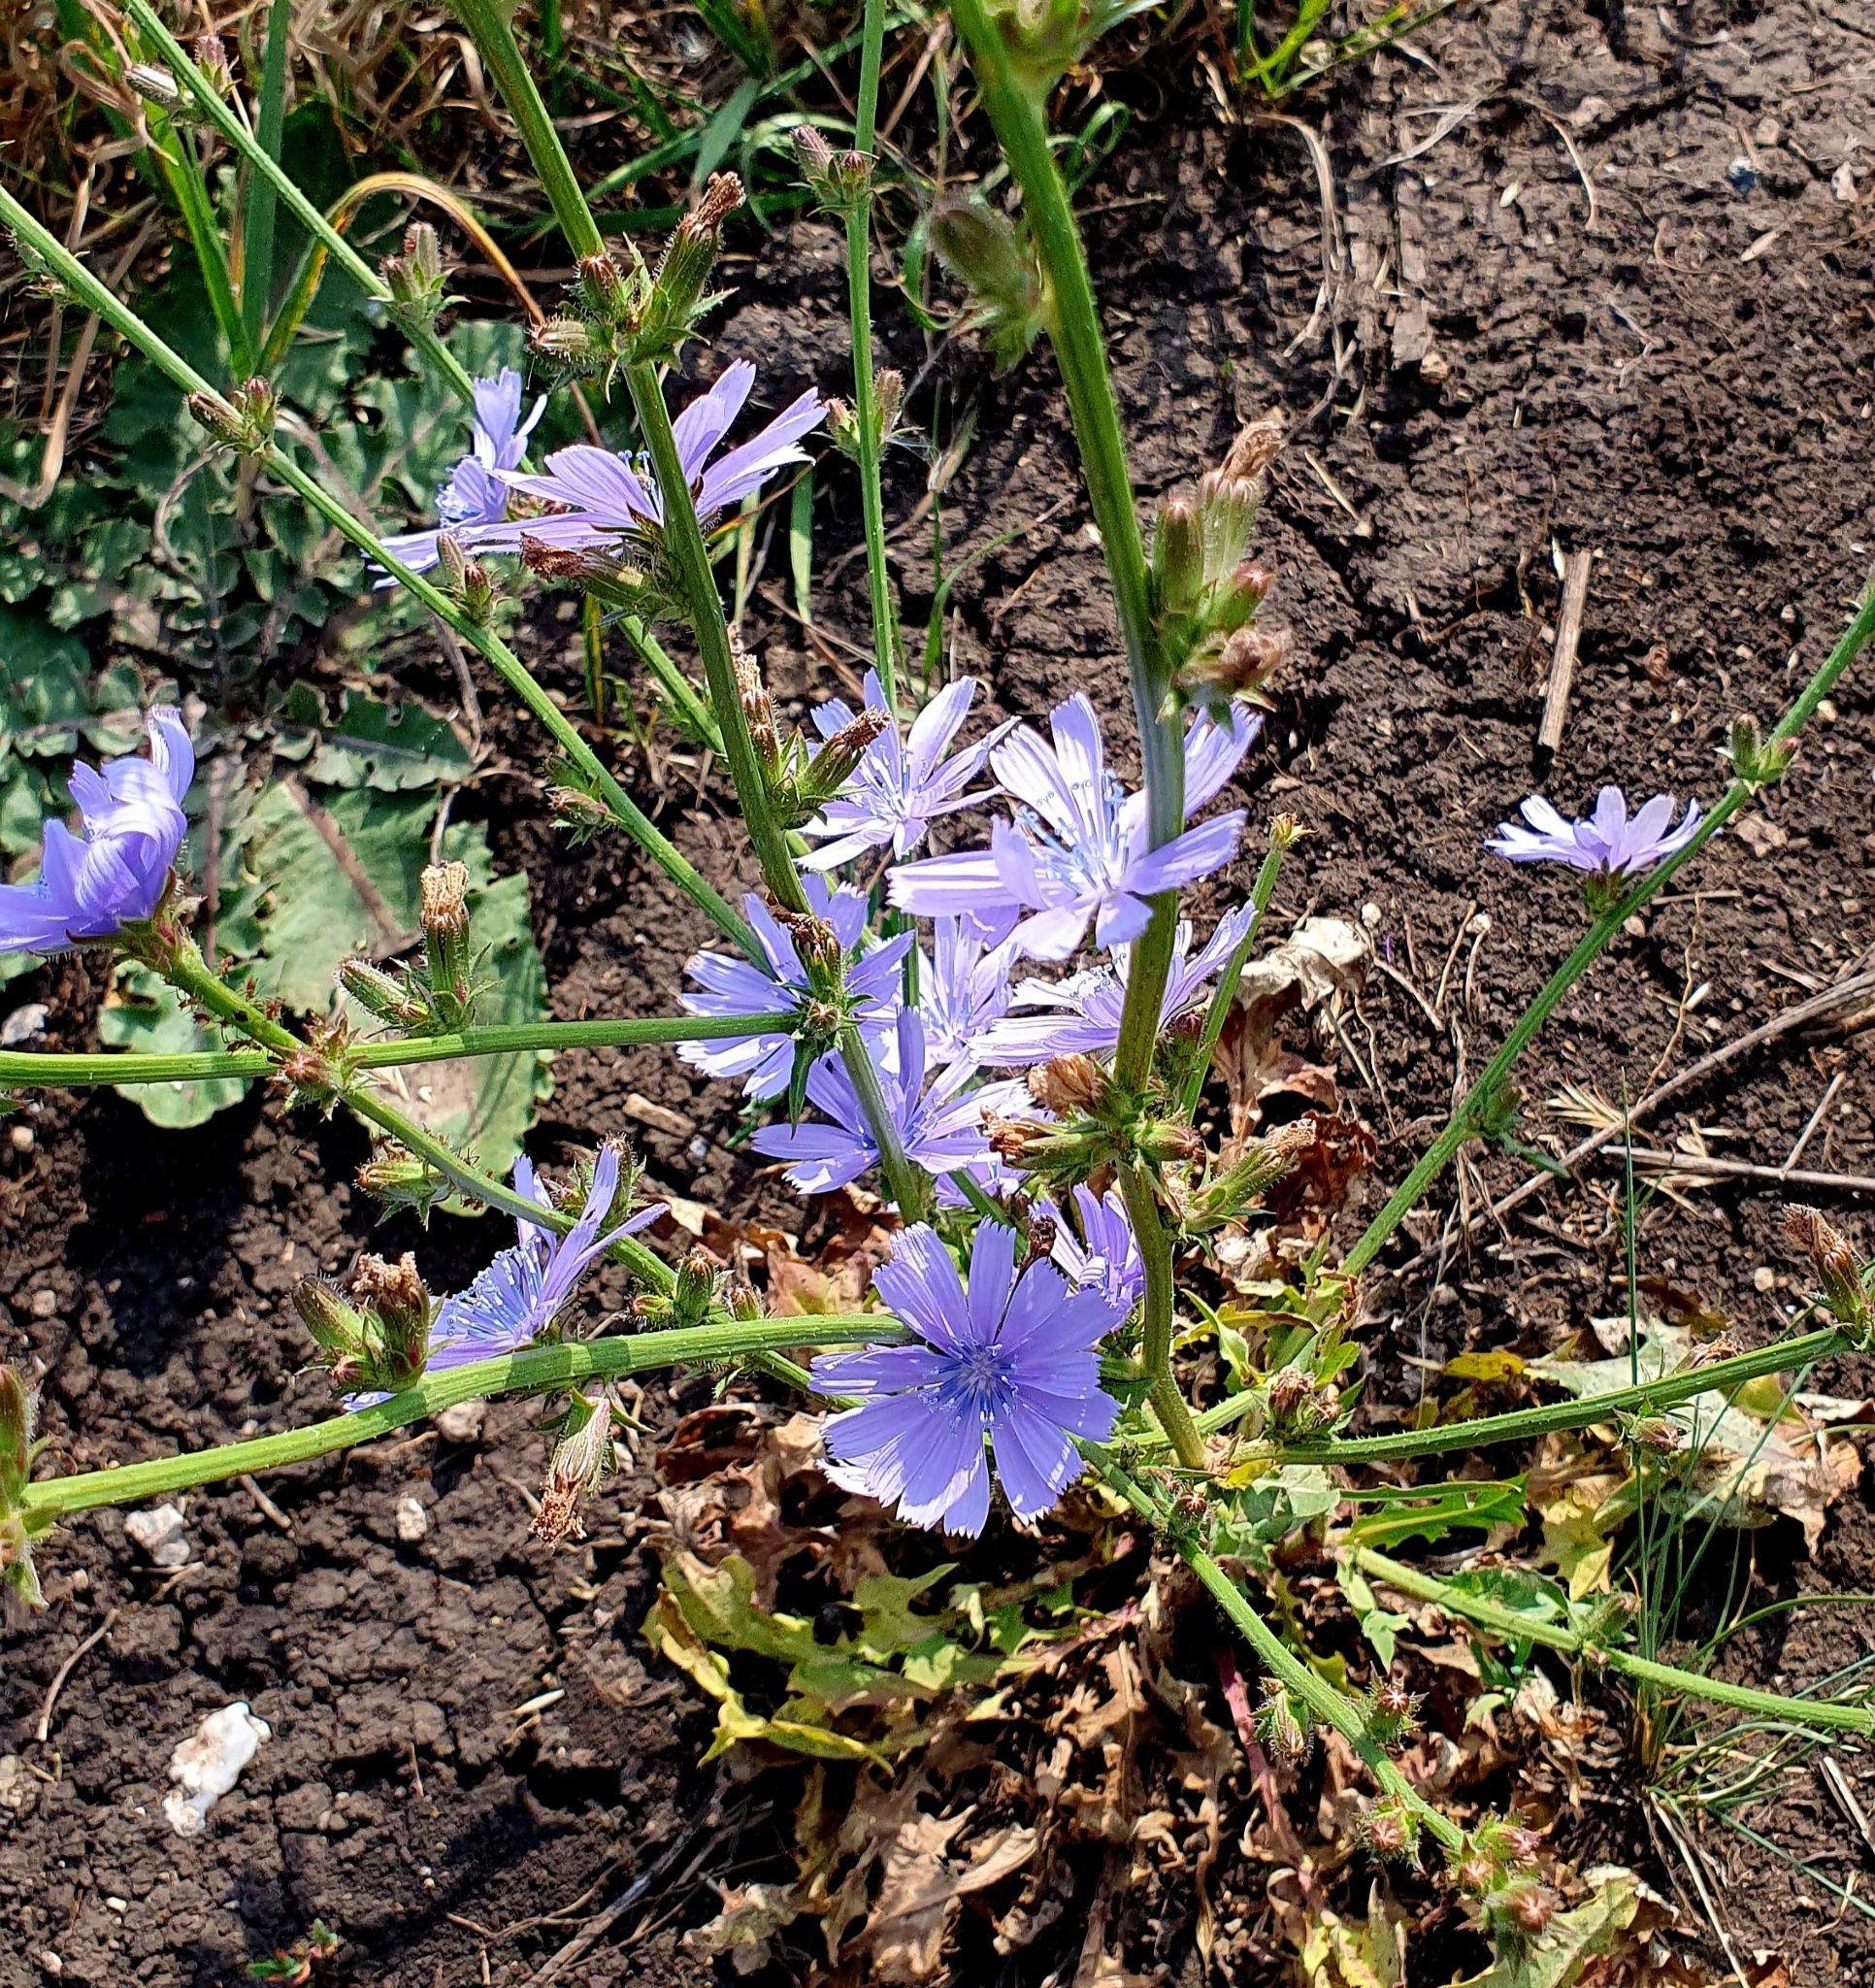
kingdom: Plantae
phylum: Tracheophyta
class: Magnoliopsida
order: Asterales
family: Asteraceae
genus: Cichorium
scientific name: Cichorium intybus
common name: Chicory
